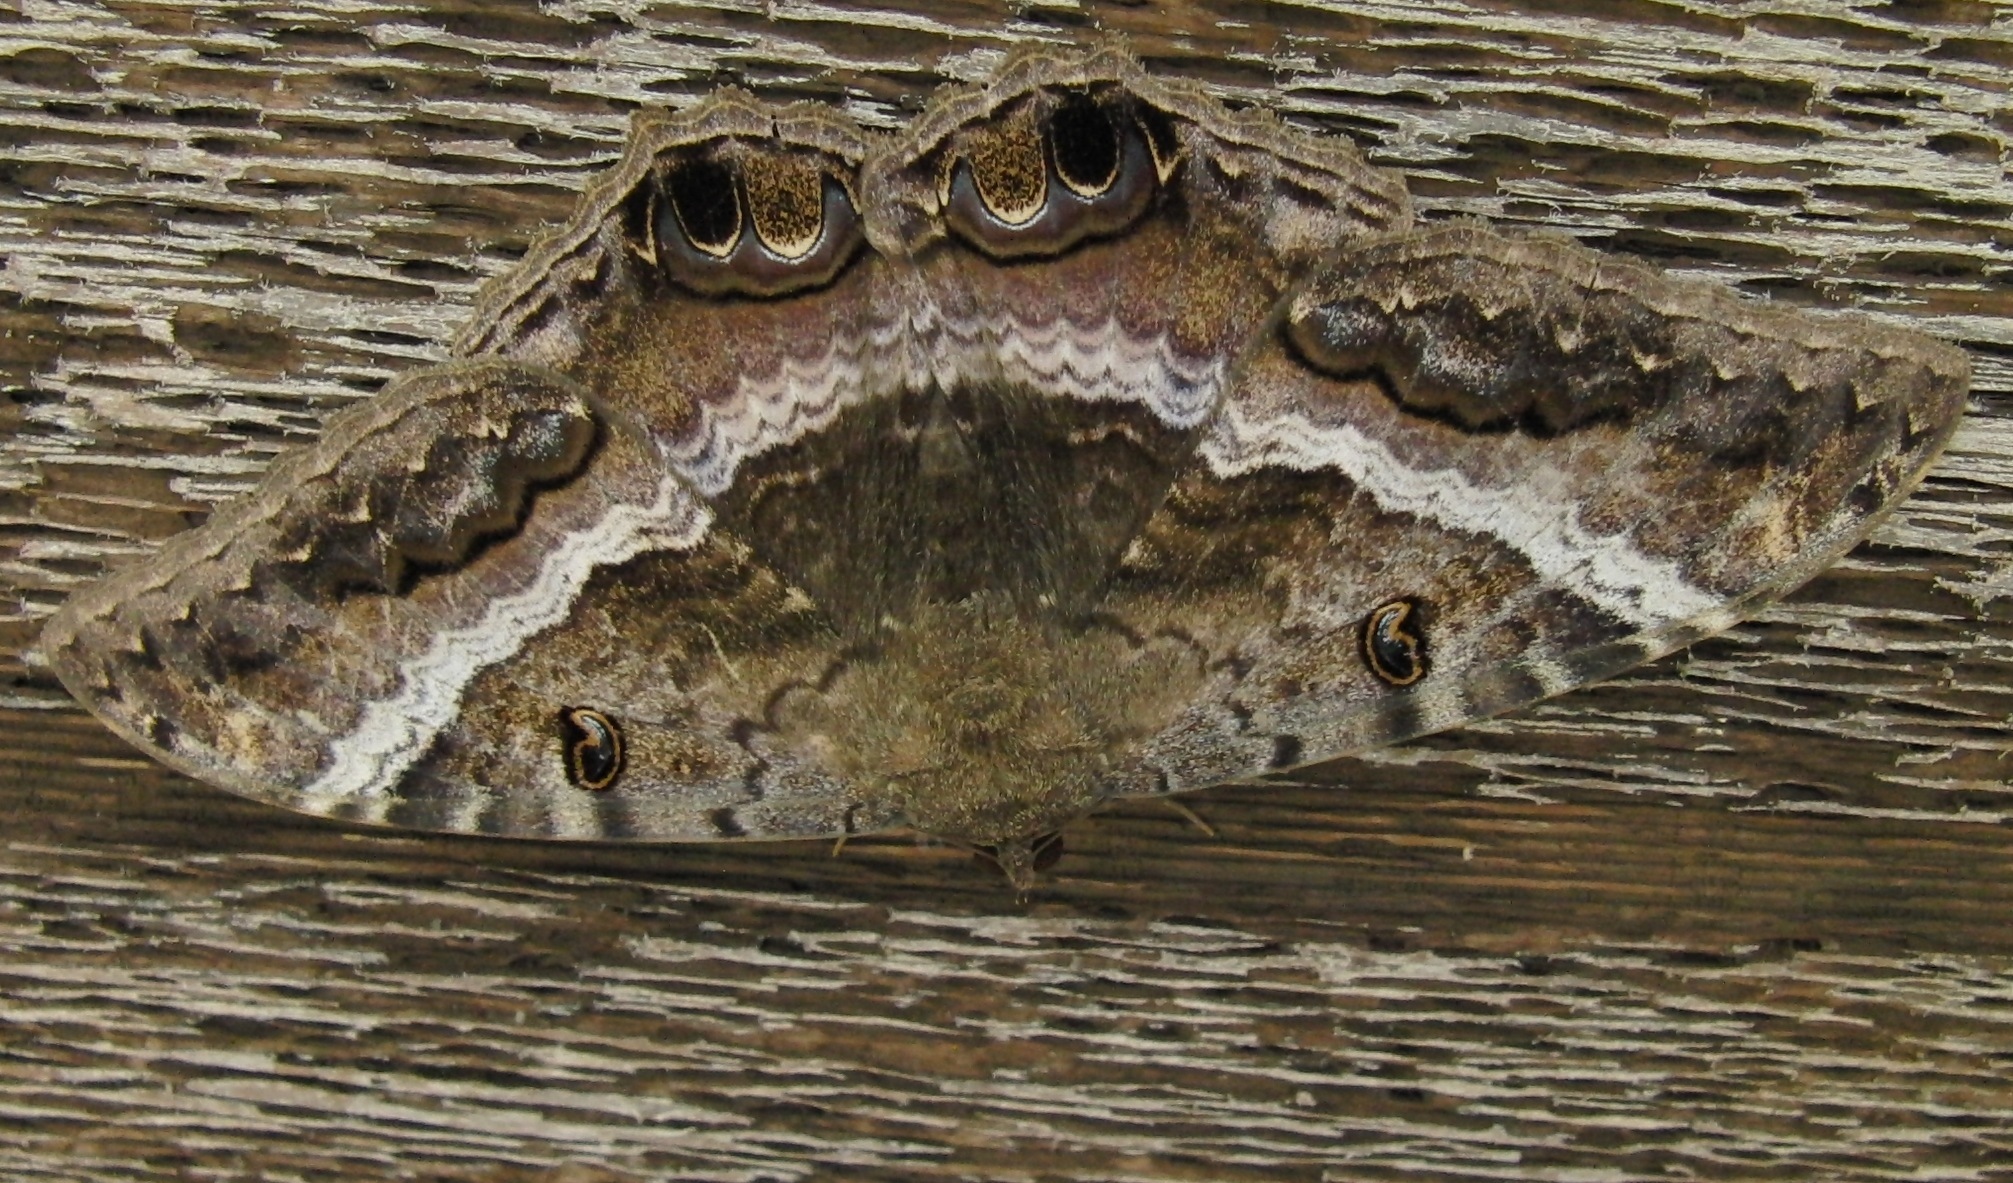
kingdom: Animalia
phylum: Arthropoda
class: Insecta
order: Lepidoptera
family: Erebidae
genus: Ascalapha
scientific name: Ascalapha odorata
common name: Black witch
